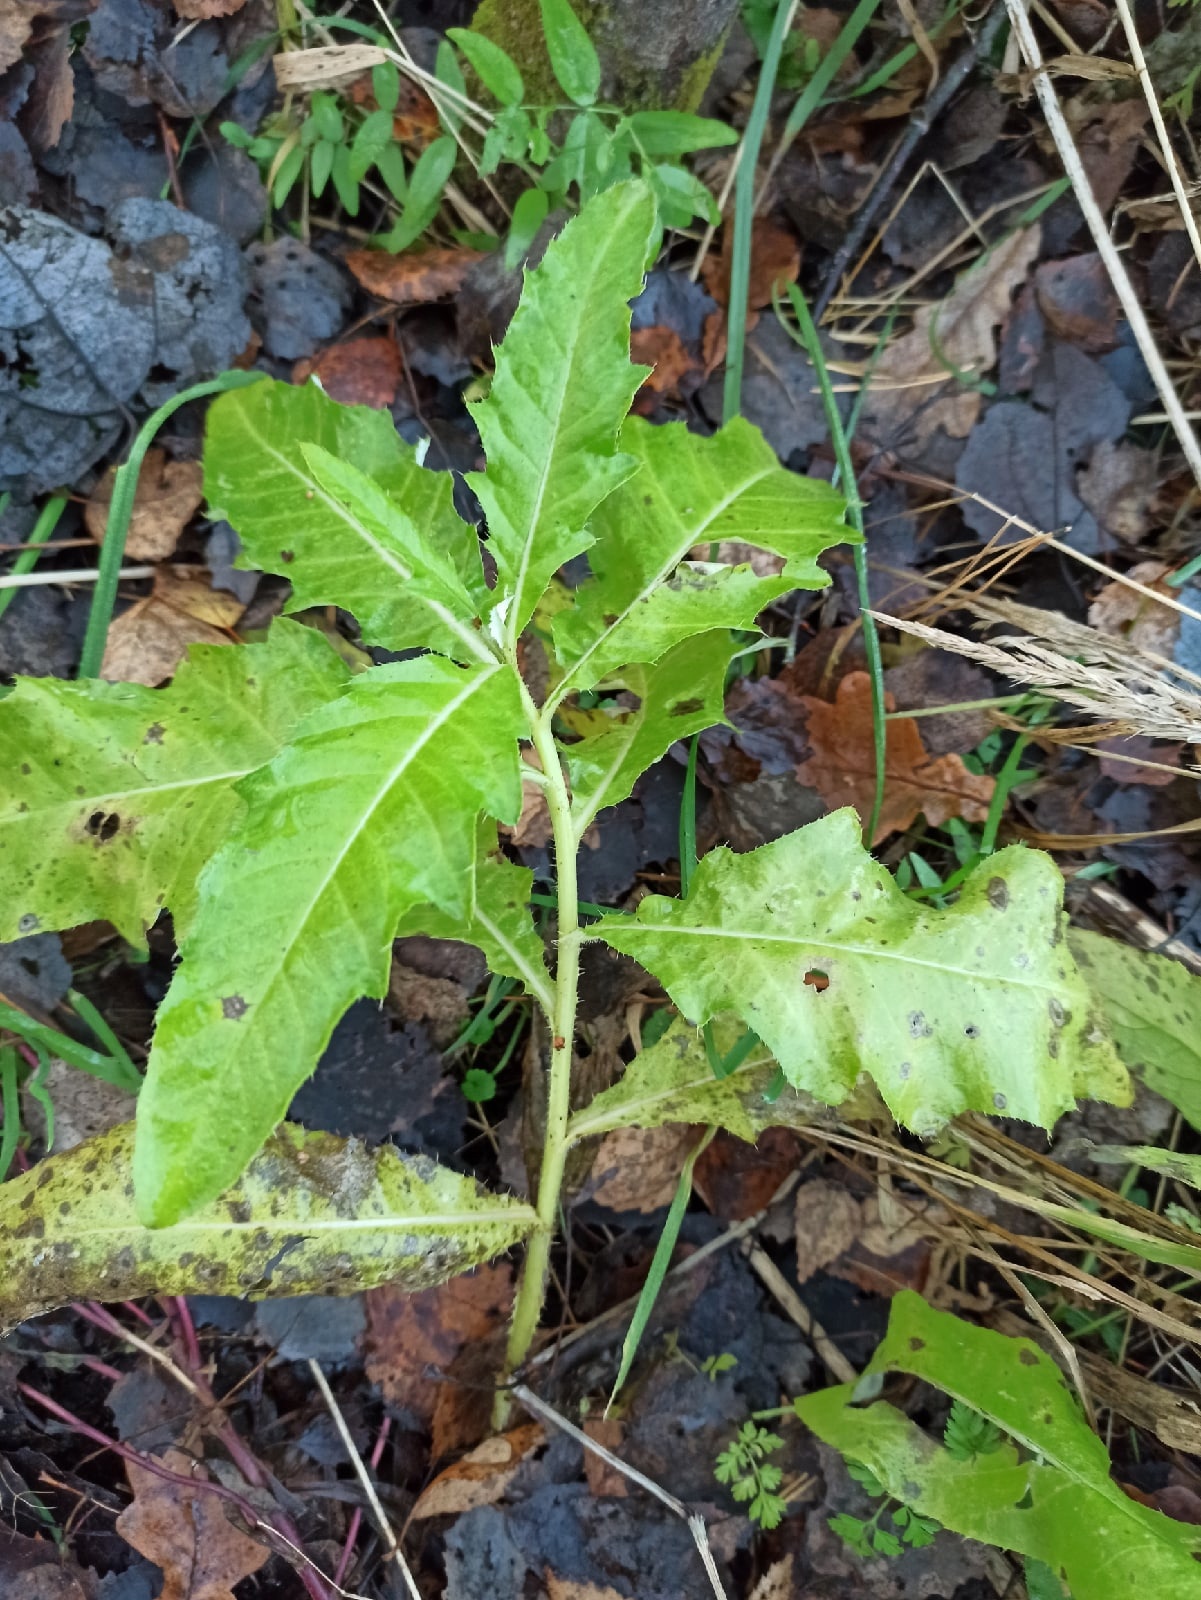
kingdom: Plantae
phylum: Tracheophyta
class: Magnoliopsida
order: Asterales
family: Asteraceae
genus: Cirsium
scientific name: Cirsium arvense
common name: Creeping thistle
